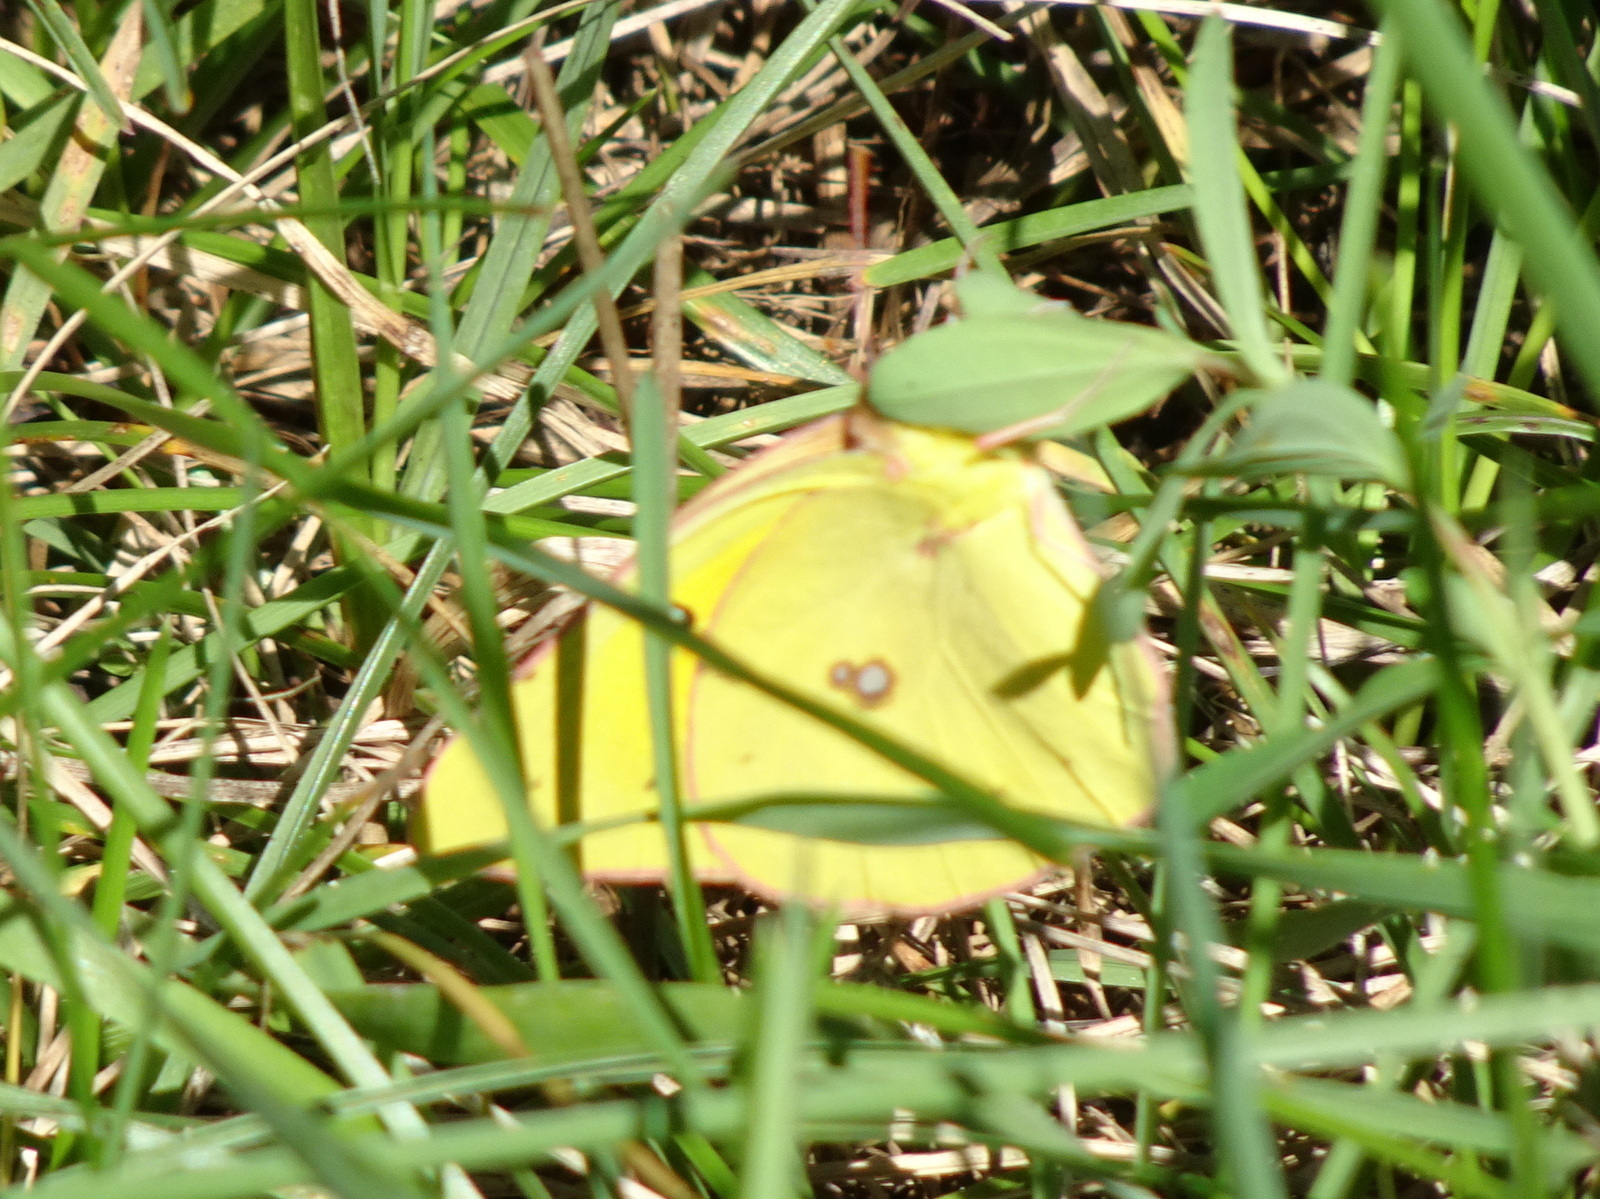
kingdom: Animalia
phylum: Arthropoda
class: Insecta
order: Lepidoptera
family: Pieridae
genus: Colias
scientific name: Colias eurytheme
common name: Alfalfa butterfly
